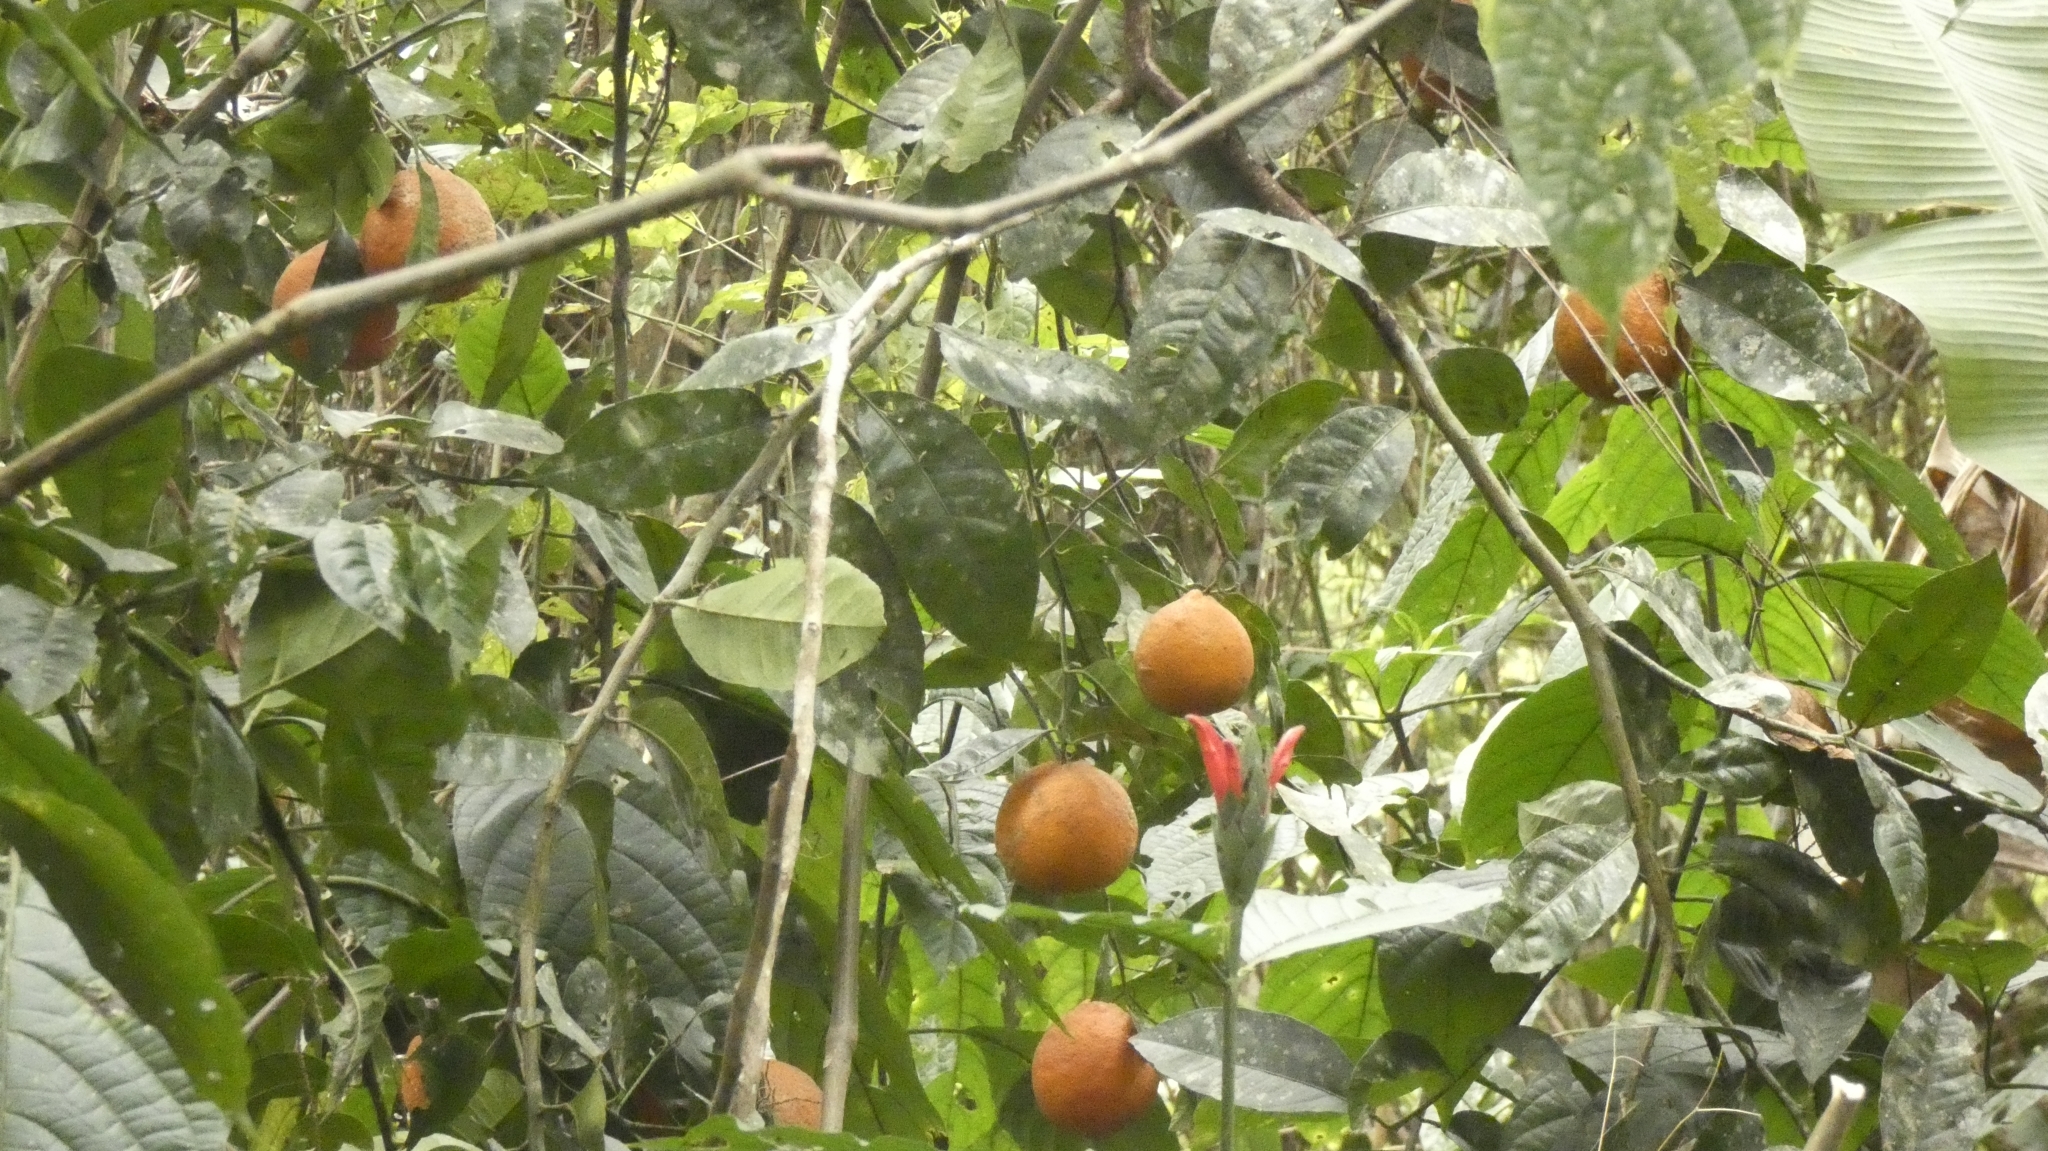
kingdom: Plantae
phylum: Tracheophyta
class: Magnoliopsida
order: Sapindales
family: Rutaceae
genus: Citrus
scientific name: Citrus limon
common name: Lemon
